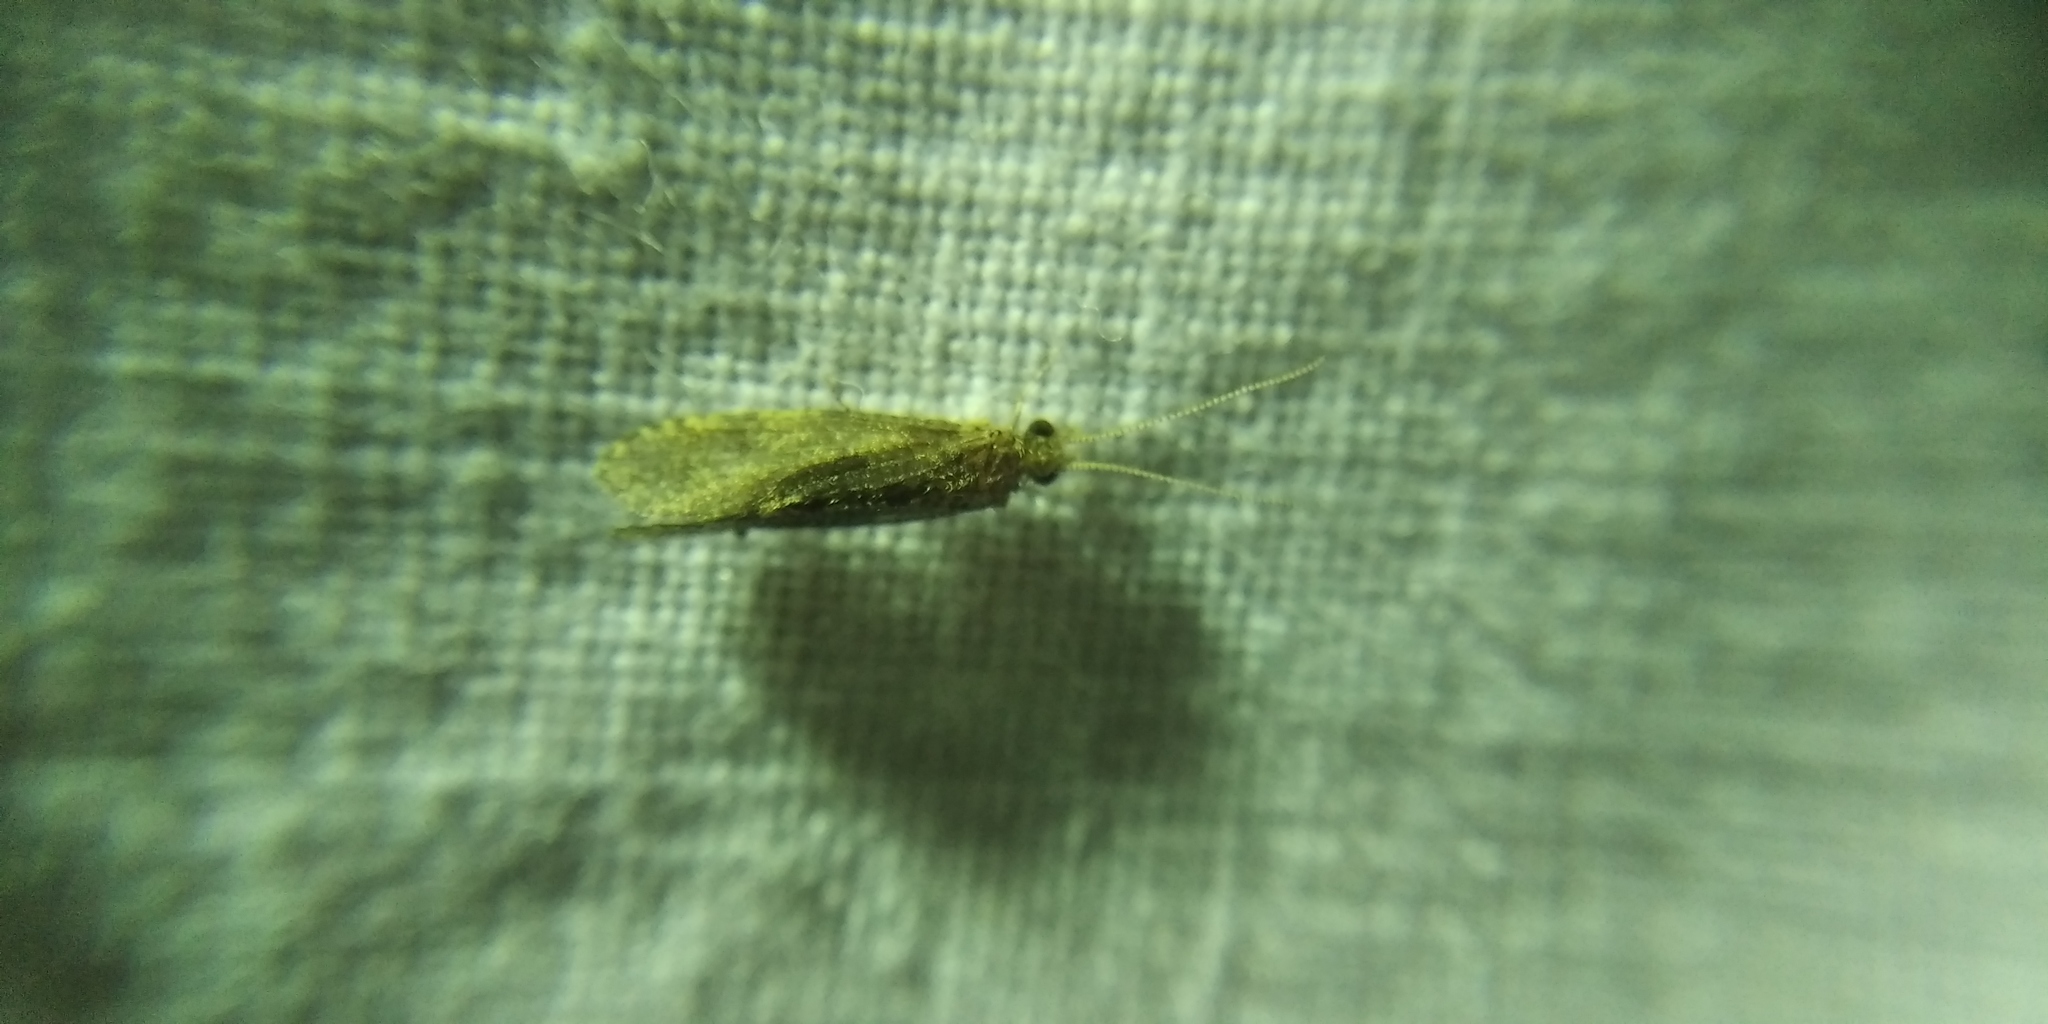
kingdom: Animalia
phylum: Arthropoda
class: Insecta
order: Trichoptera
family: Ecnomidae
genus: Ecnomus
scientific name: Ecnomus tenellus
